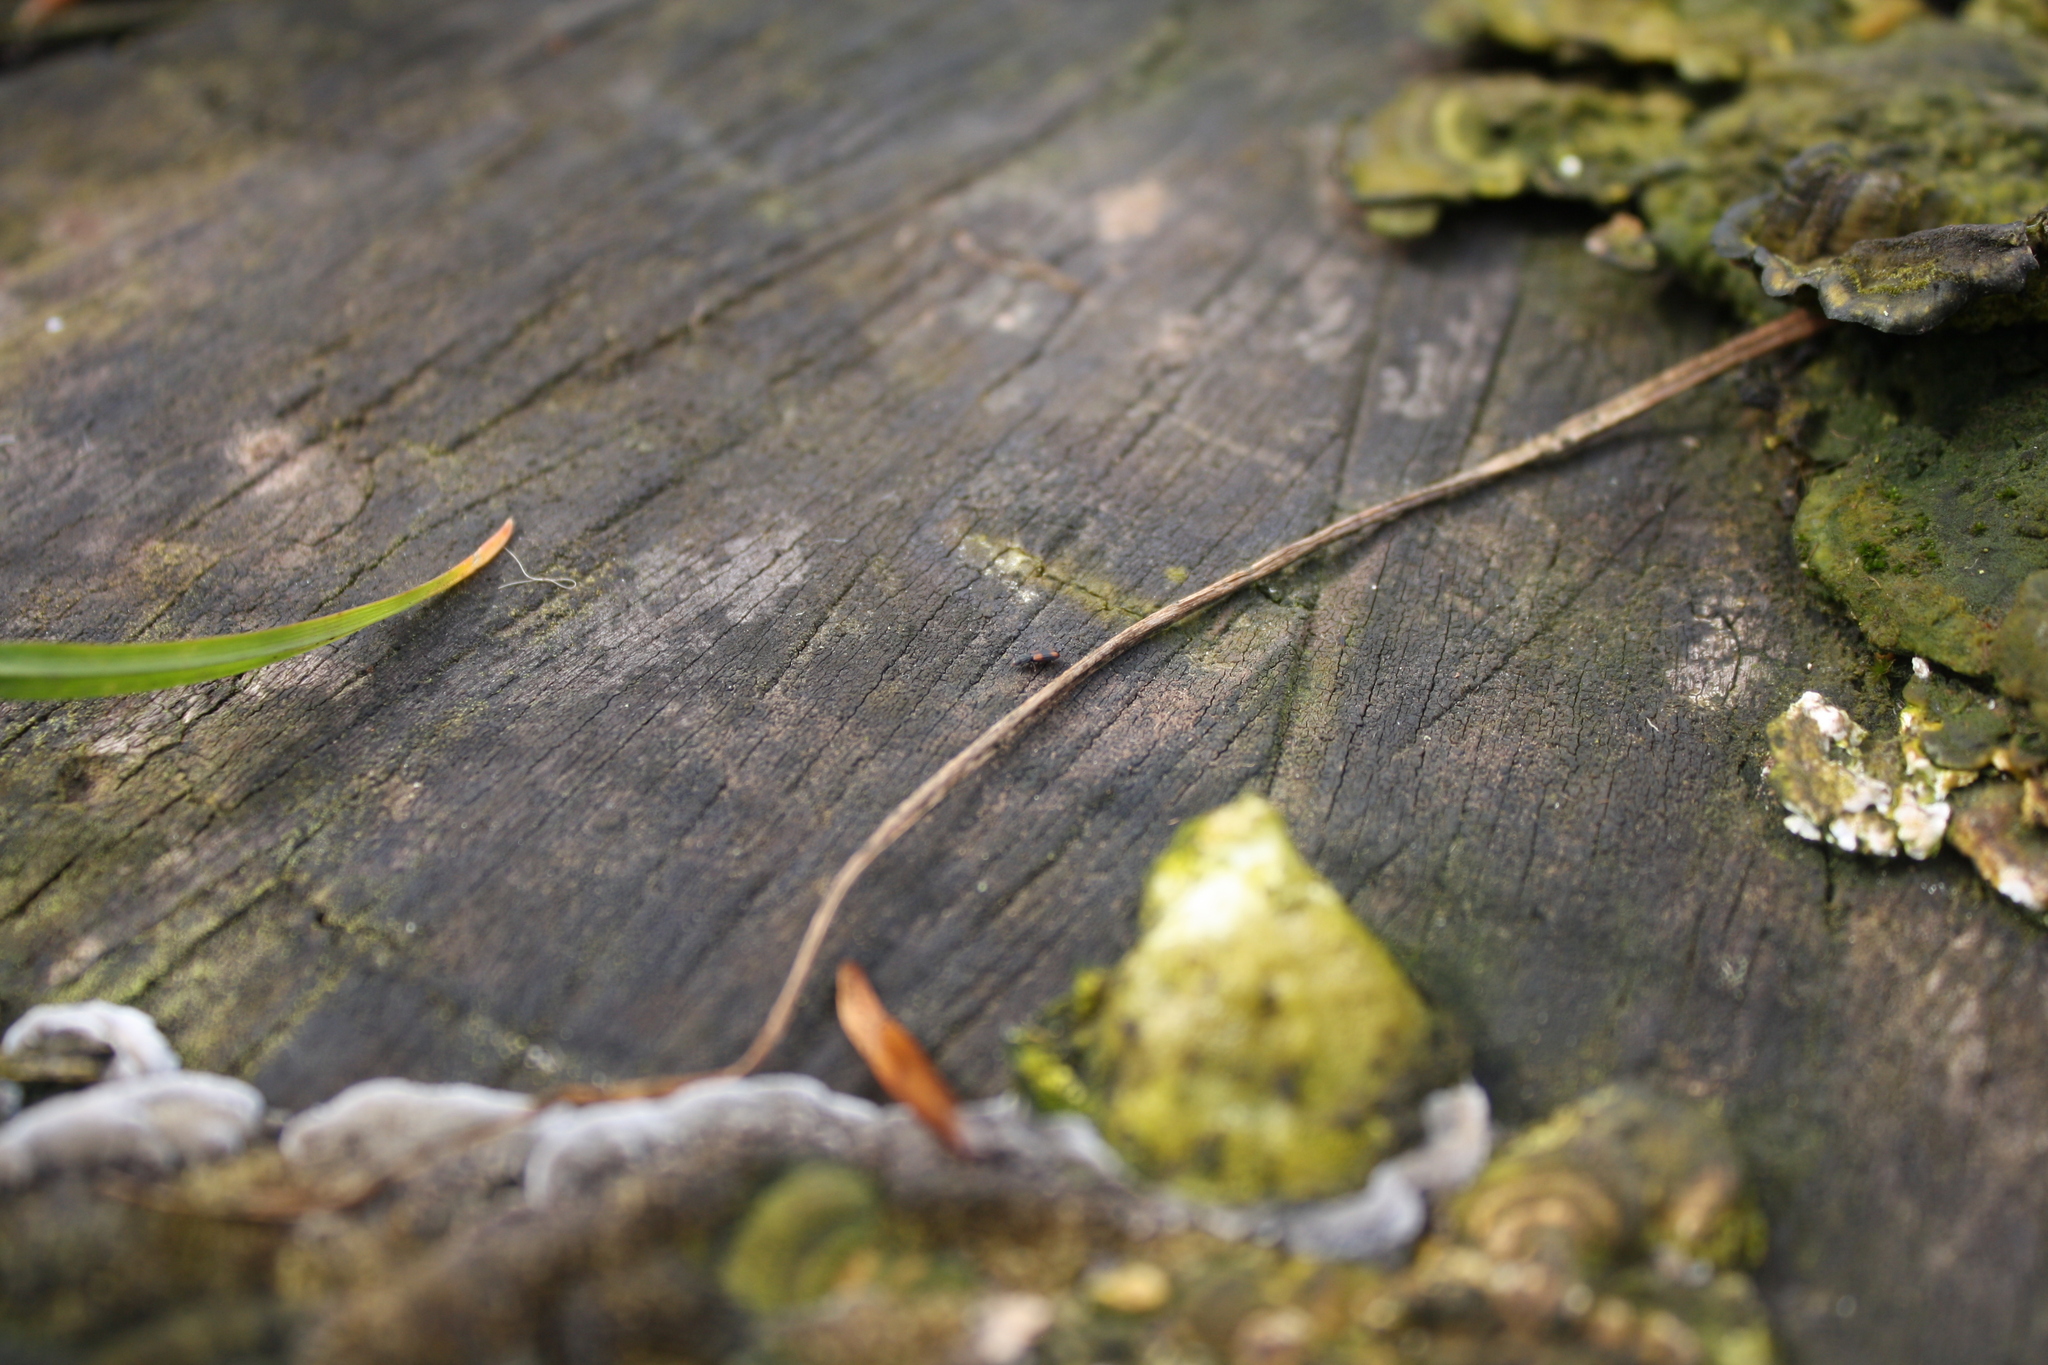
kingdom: Animalia
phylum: Arthropoda
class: Insecta
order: Coleoptera
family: Zopheridae
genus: Bitoma
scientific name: Bitoma crenata
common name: Bark beetle
